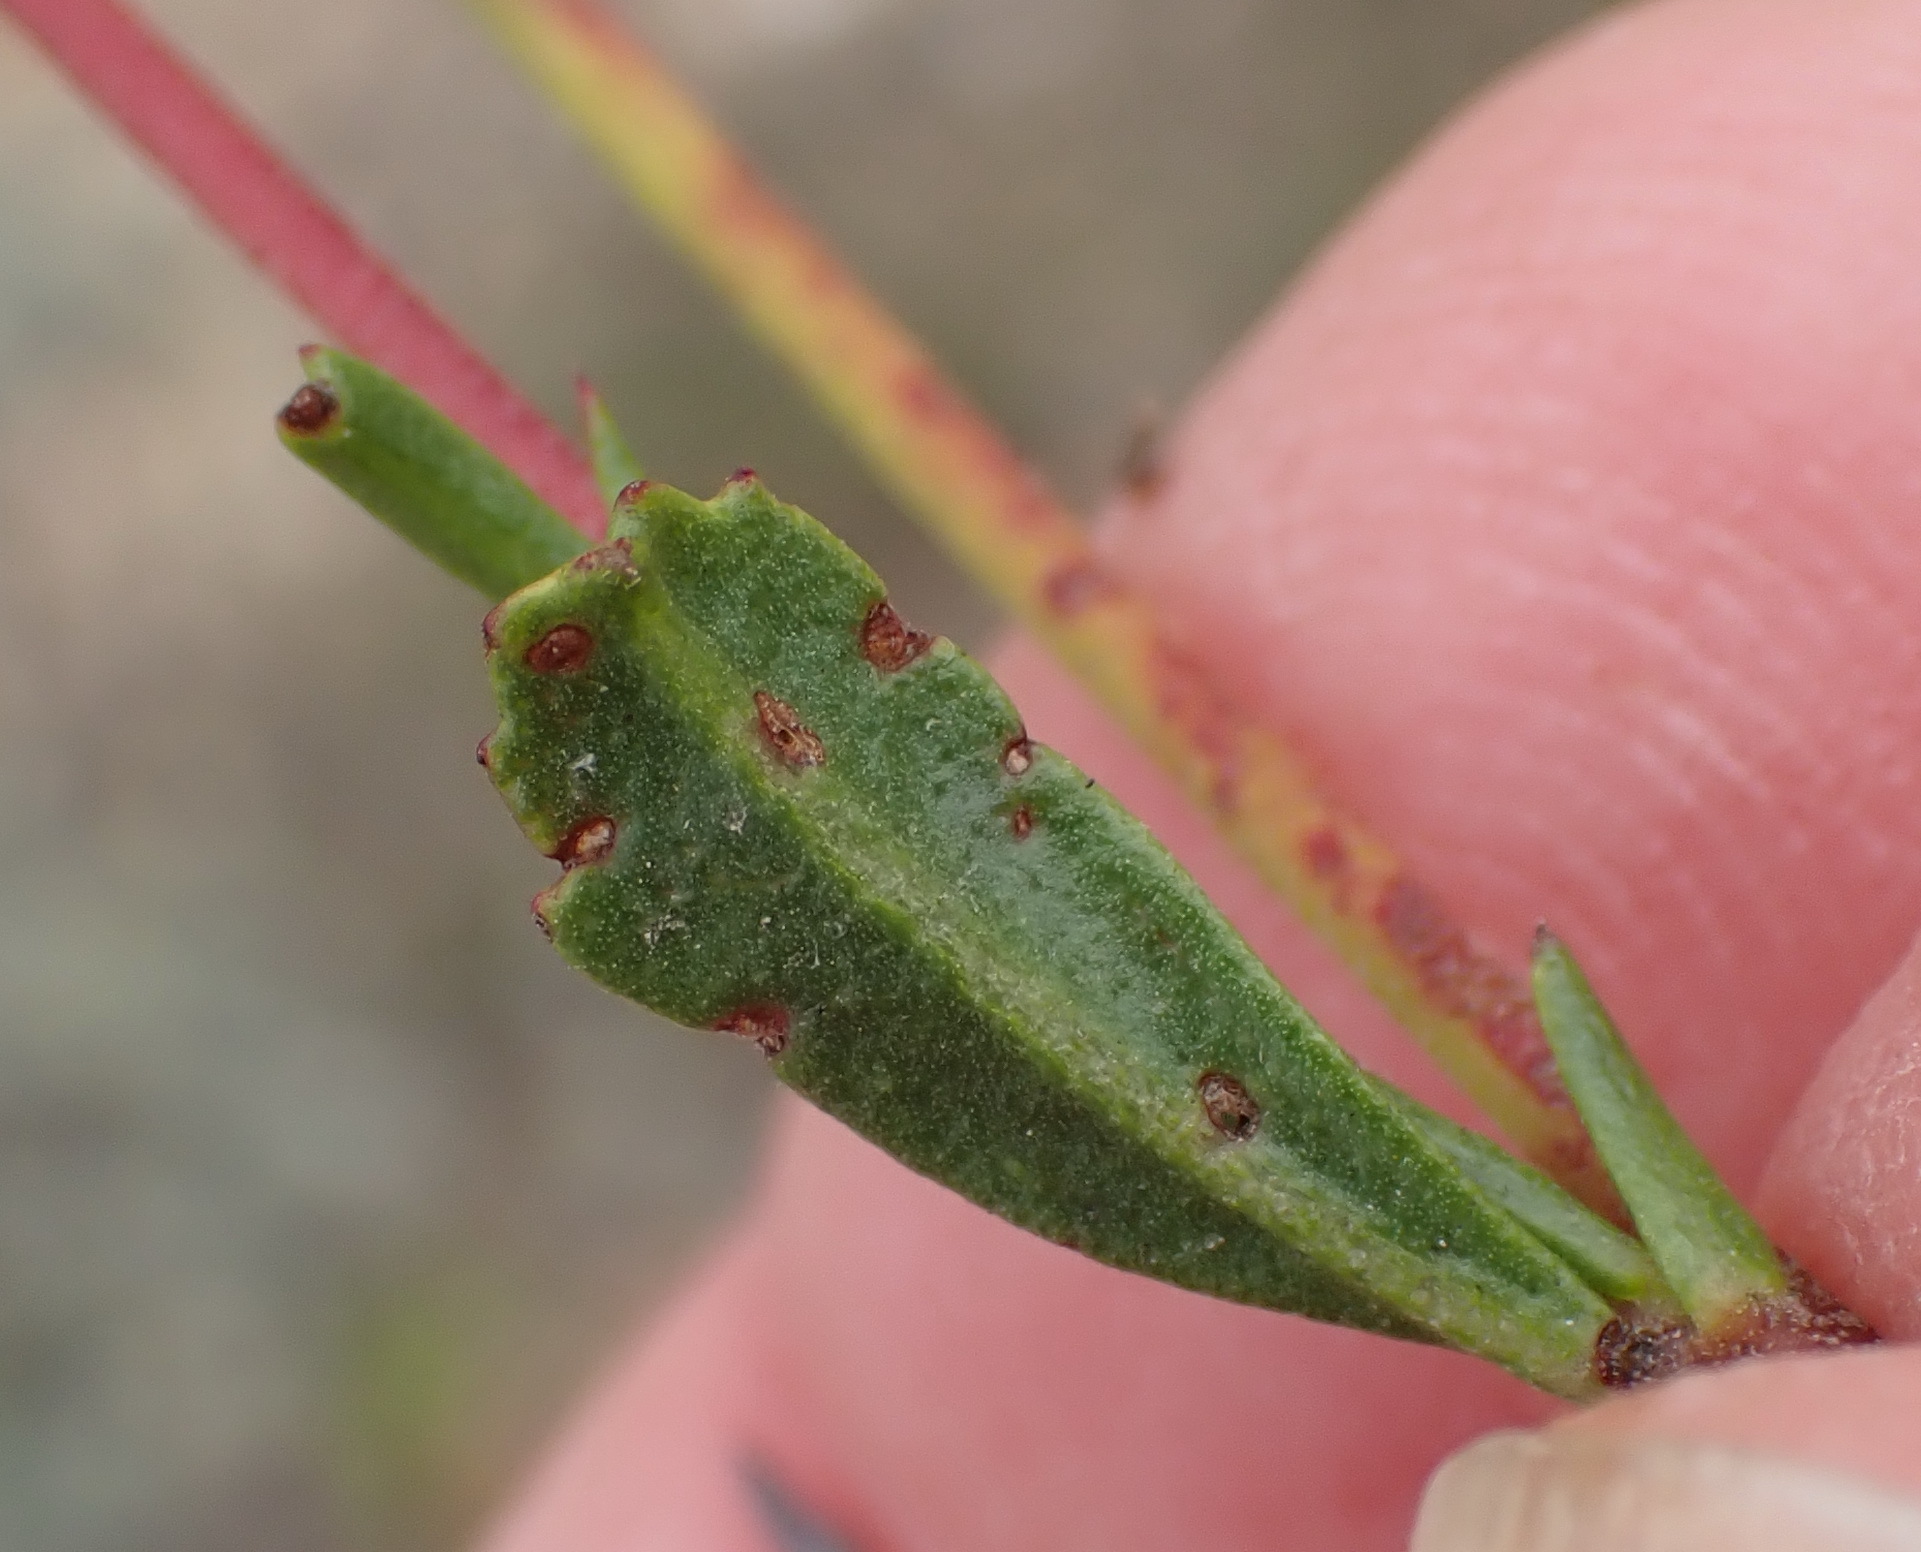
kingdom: Plantae
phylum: Tracheophyta
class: Magnoliopsida
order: Malvales
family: Malvaceae
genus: Hermannia
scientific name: Hermannia flammea
